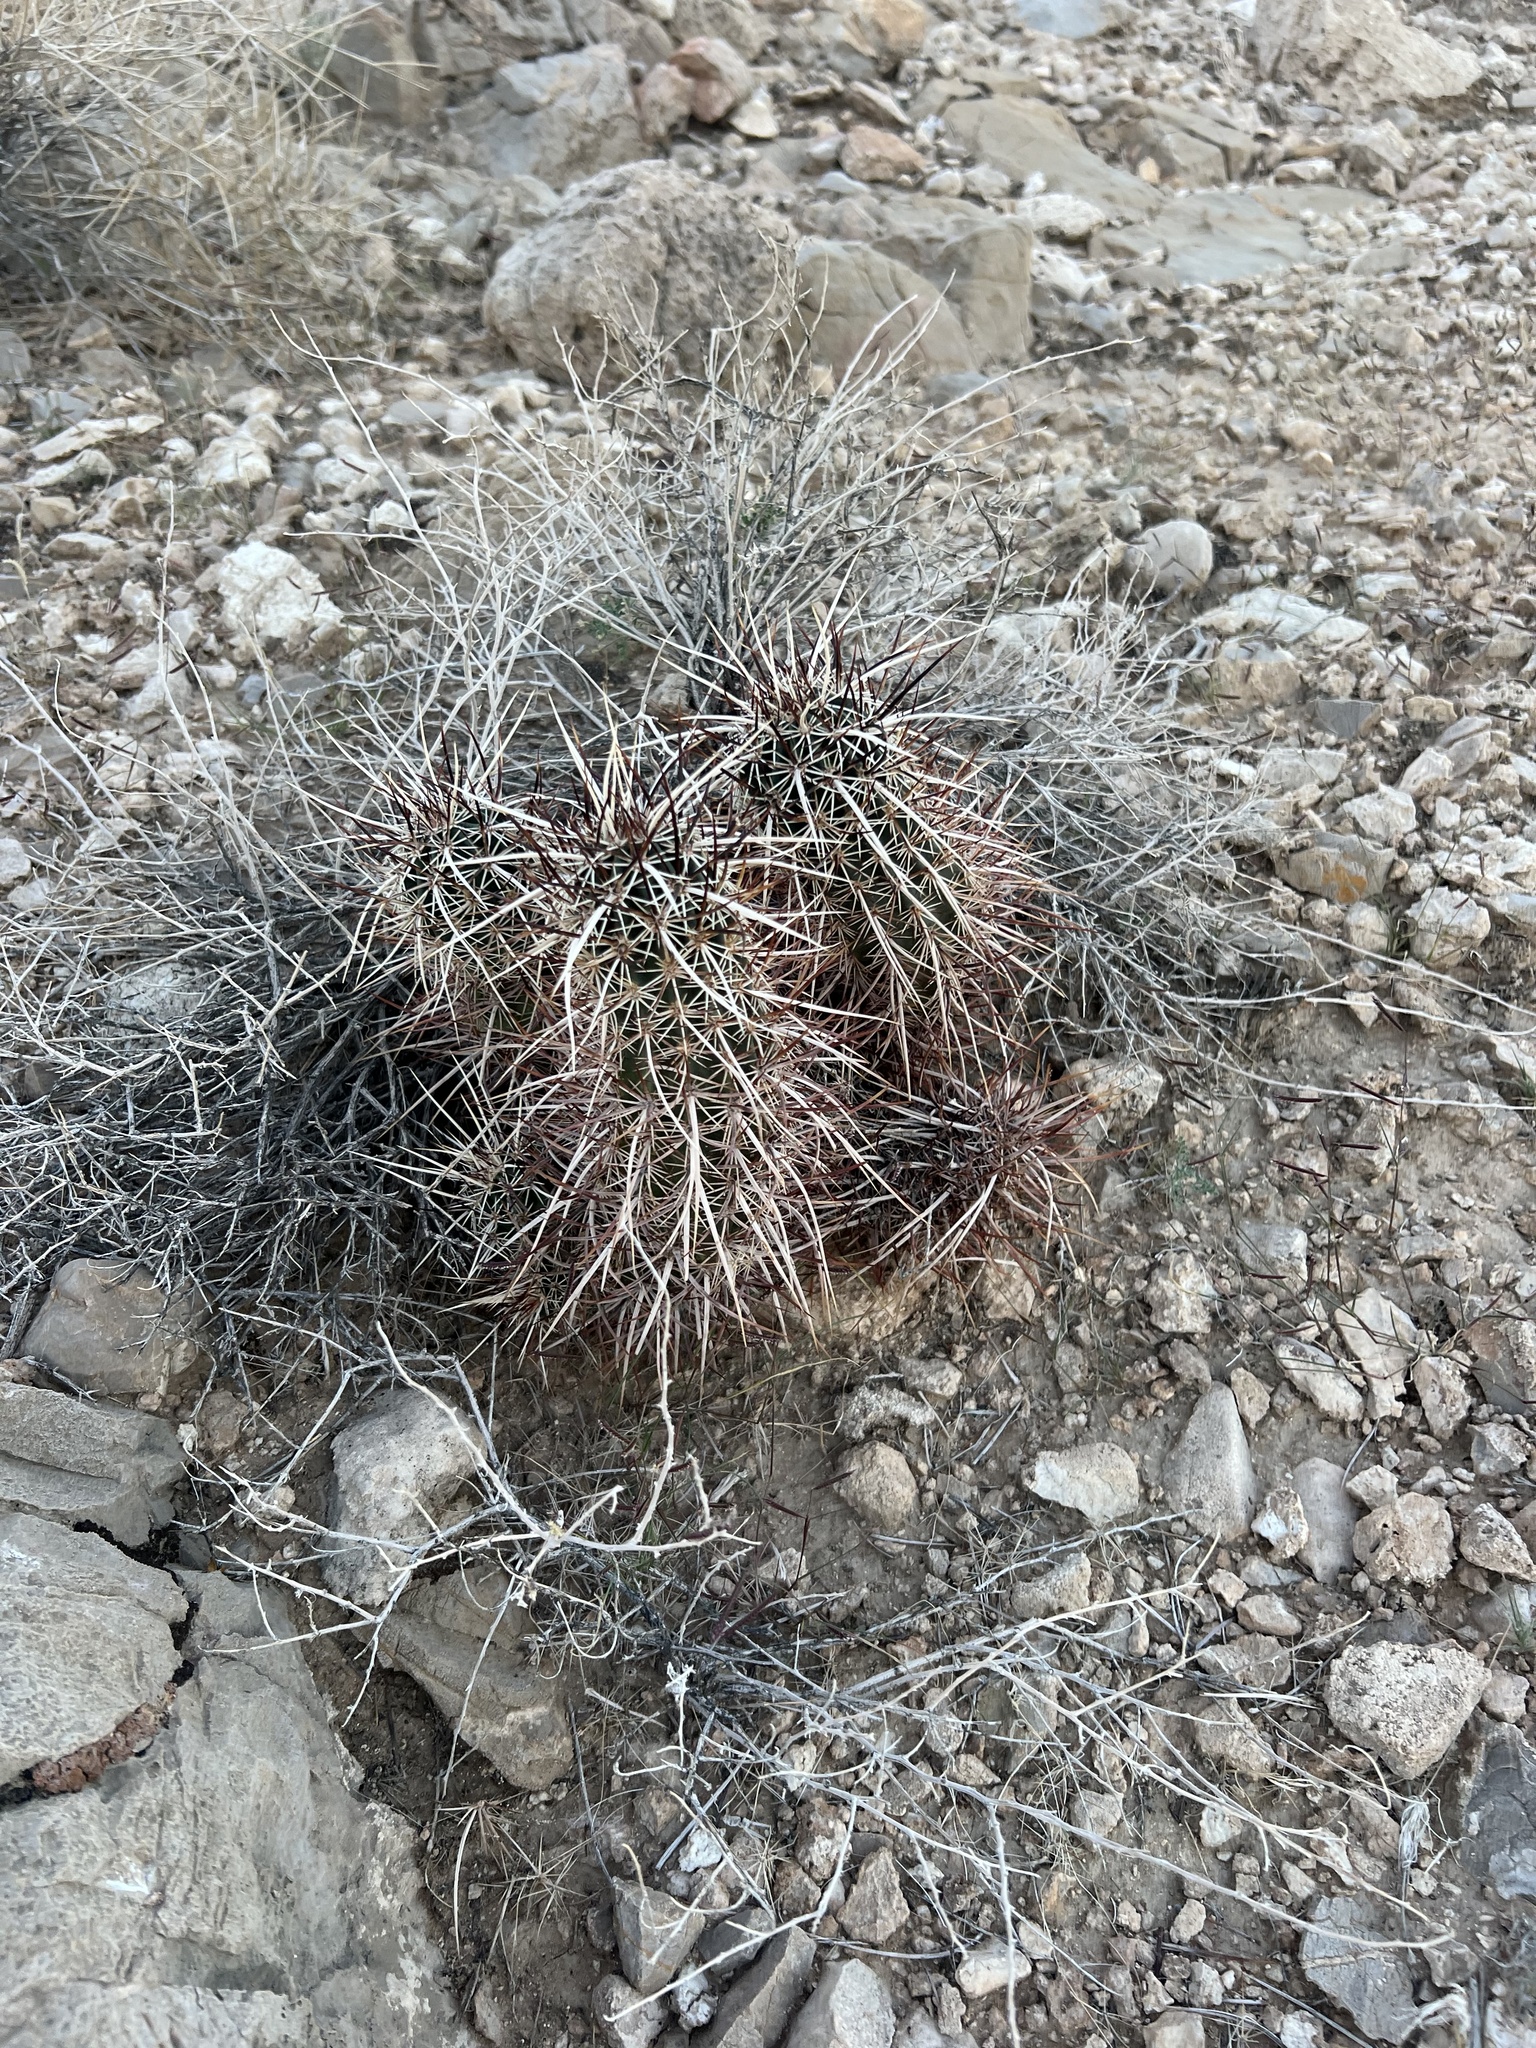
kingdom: Plantae
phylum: Tracheophyta
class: Magnoliopsida
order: Caryophyllales
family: Cactaceae
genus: Echinocereus
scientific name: Echinocereus engelmannii
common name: Engelmann's hedgehog cactus
